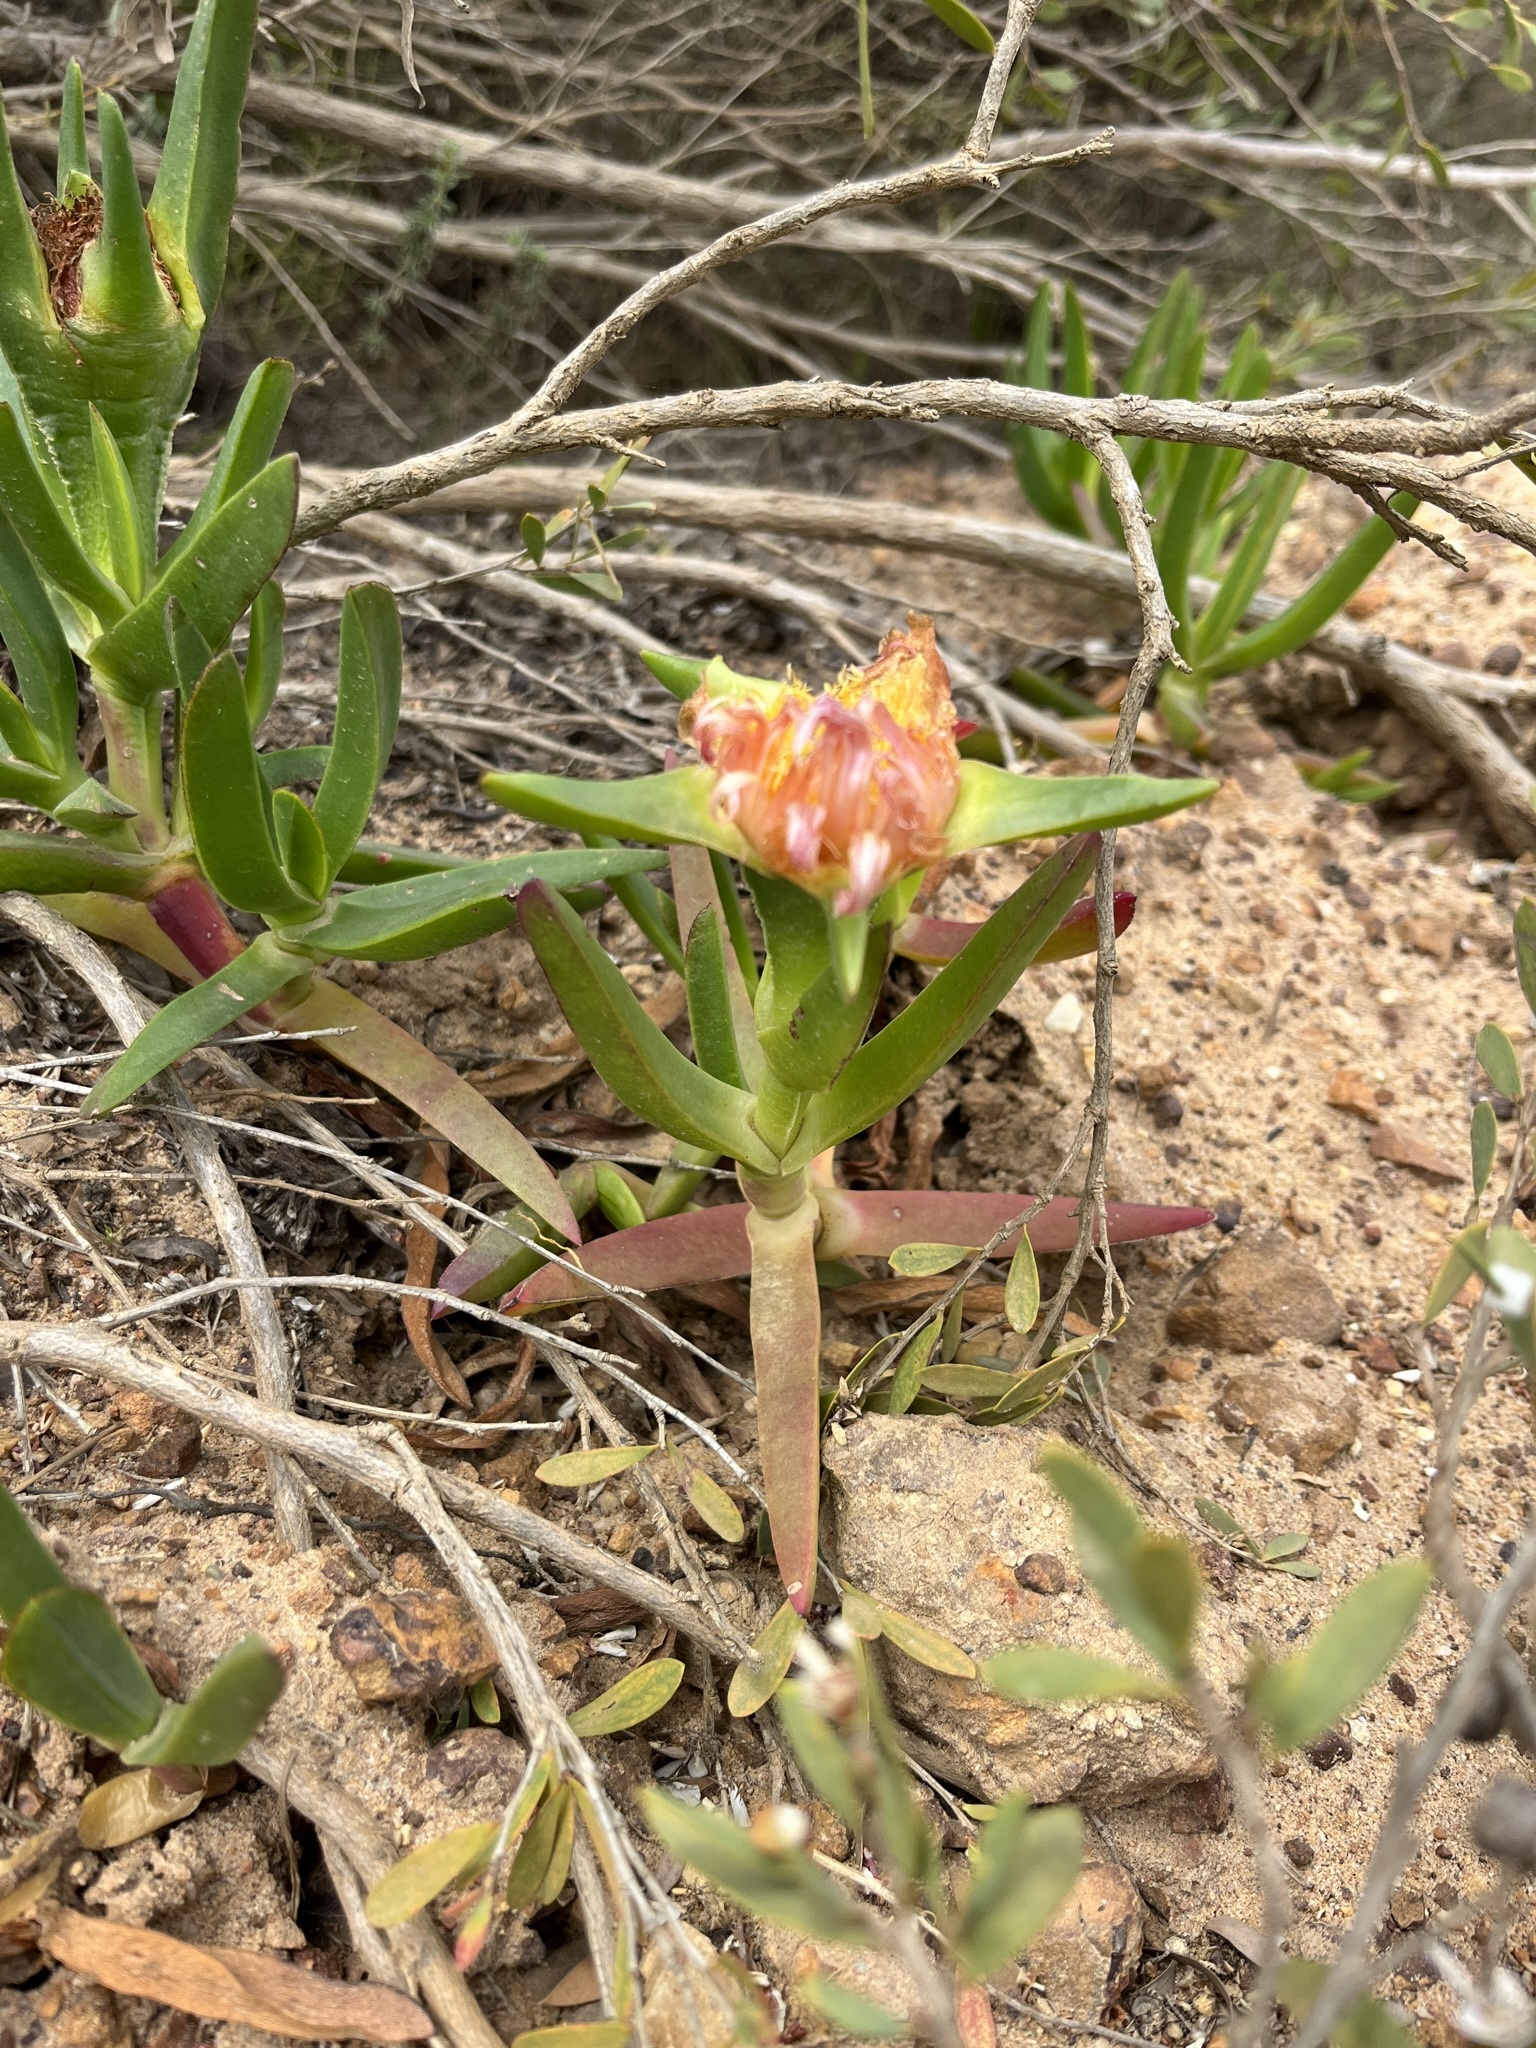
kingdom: Plantae
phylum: Tracheophyta
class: Magnoliopsida
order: Caryophyllales
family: Aizoaceae
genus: Carpobrotus
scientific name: Carpobrotus edulis
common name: Hottentot-fig
